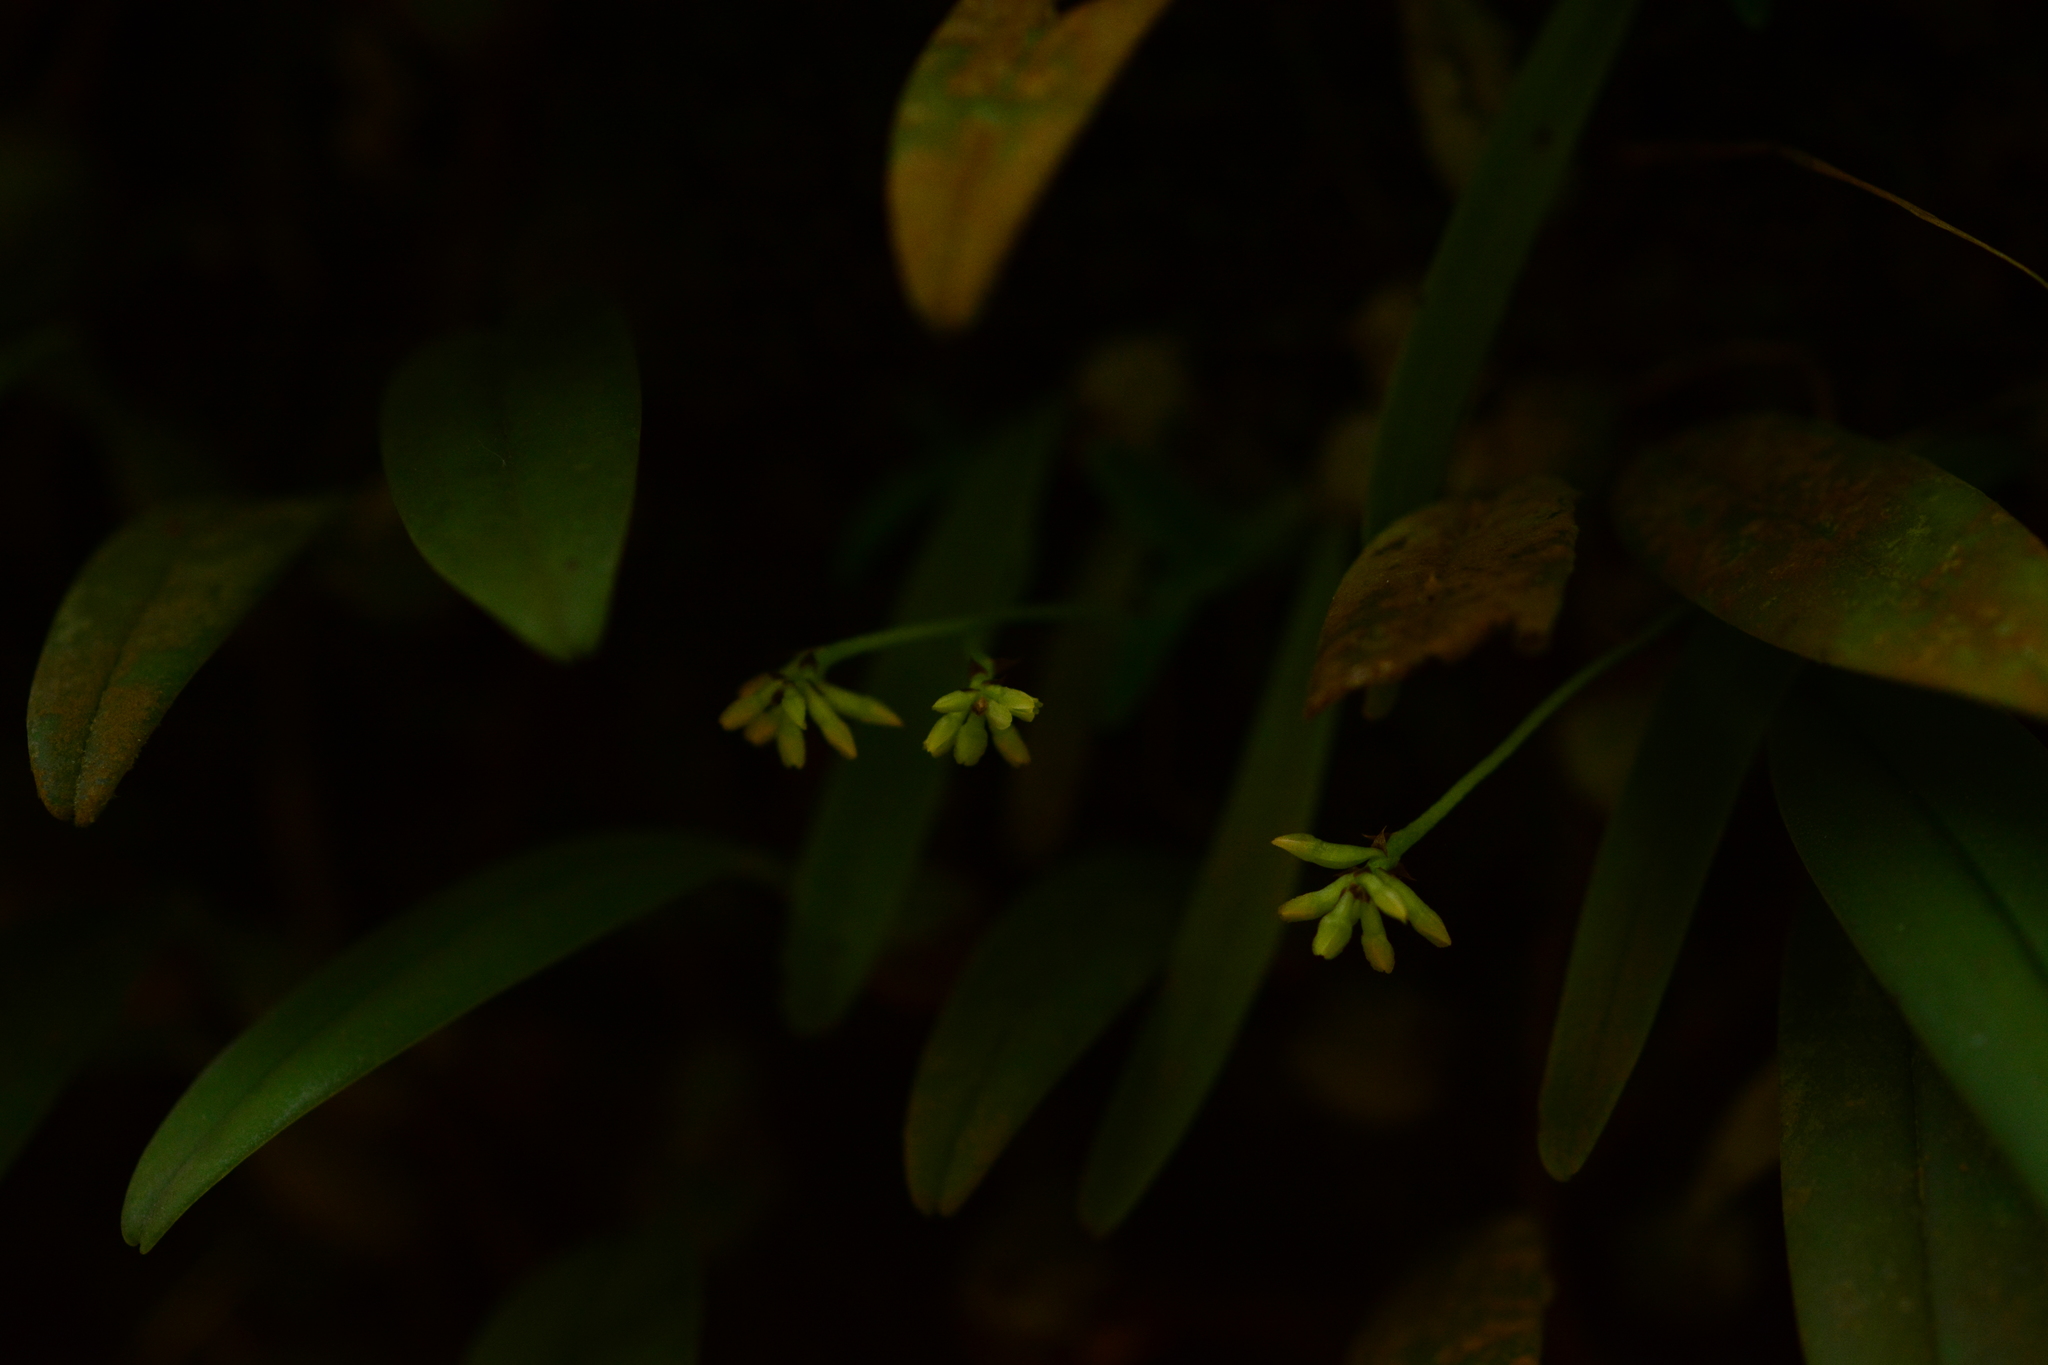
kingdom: Plantae
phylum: Tracheophyta
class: Liliopsida
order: Asparagales
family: Orchidaceae
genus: Thelasis
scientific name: Thelasis pygmaea
